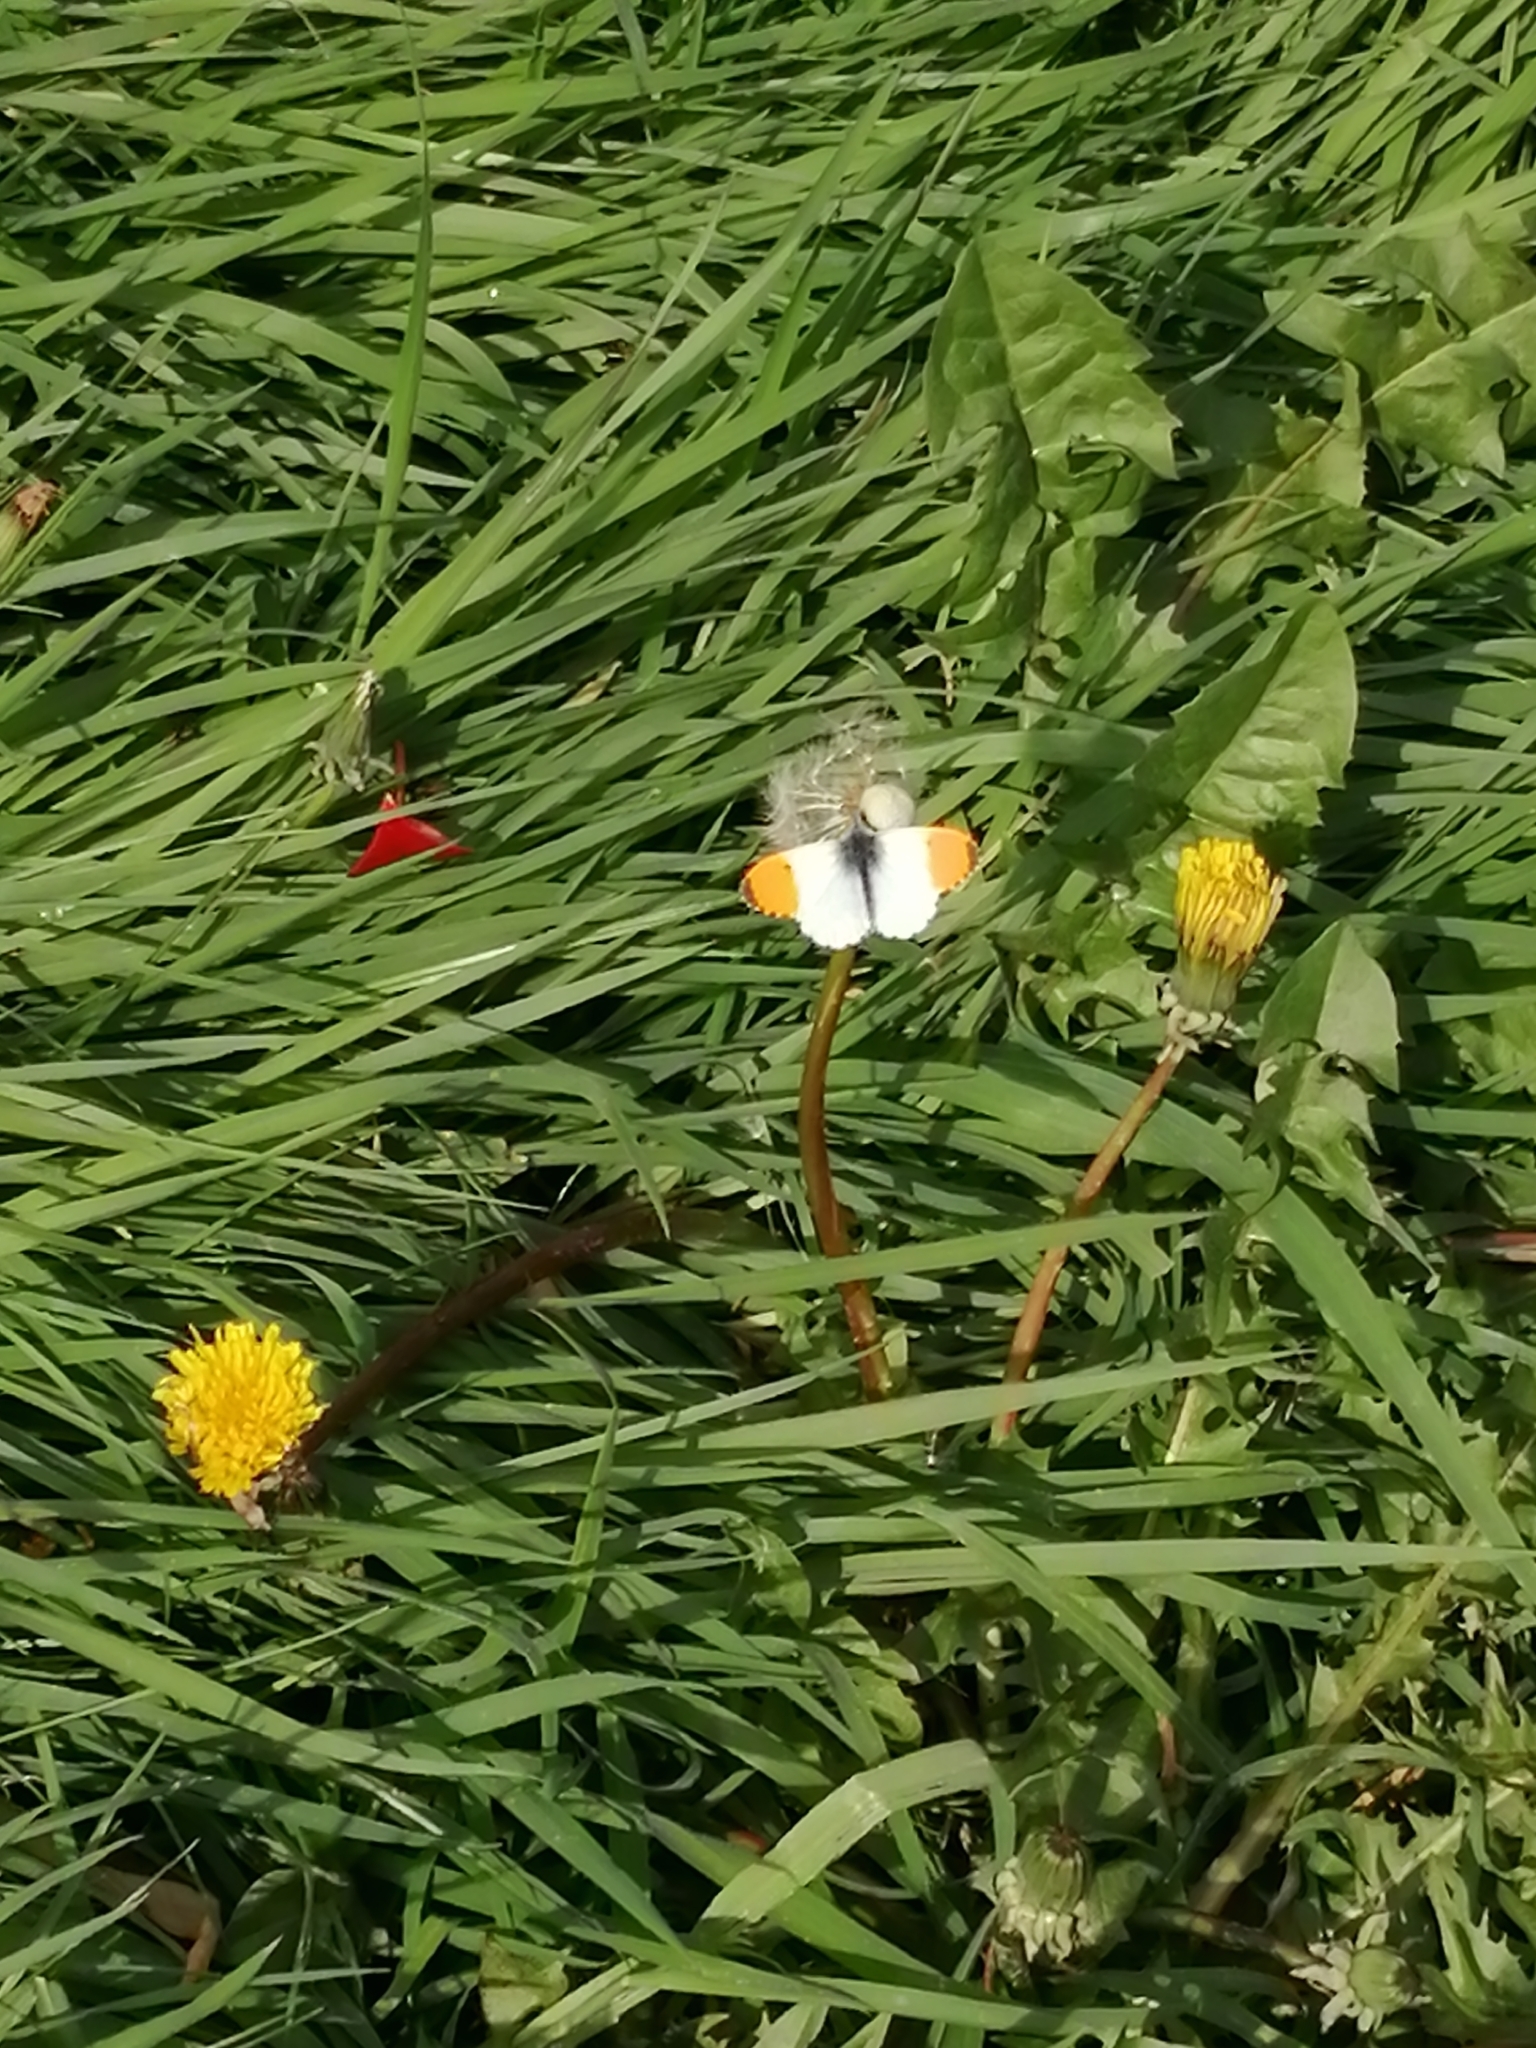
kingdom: Animalia
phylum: Arthropoda
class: Insecta
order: Lepidoptera
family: Pieridae
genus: Anthocharis
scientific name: Anthocharis cardamines
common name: Orange-tip
